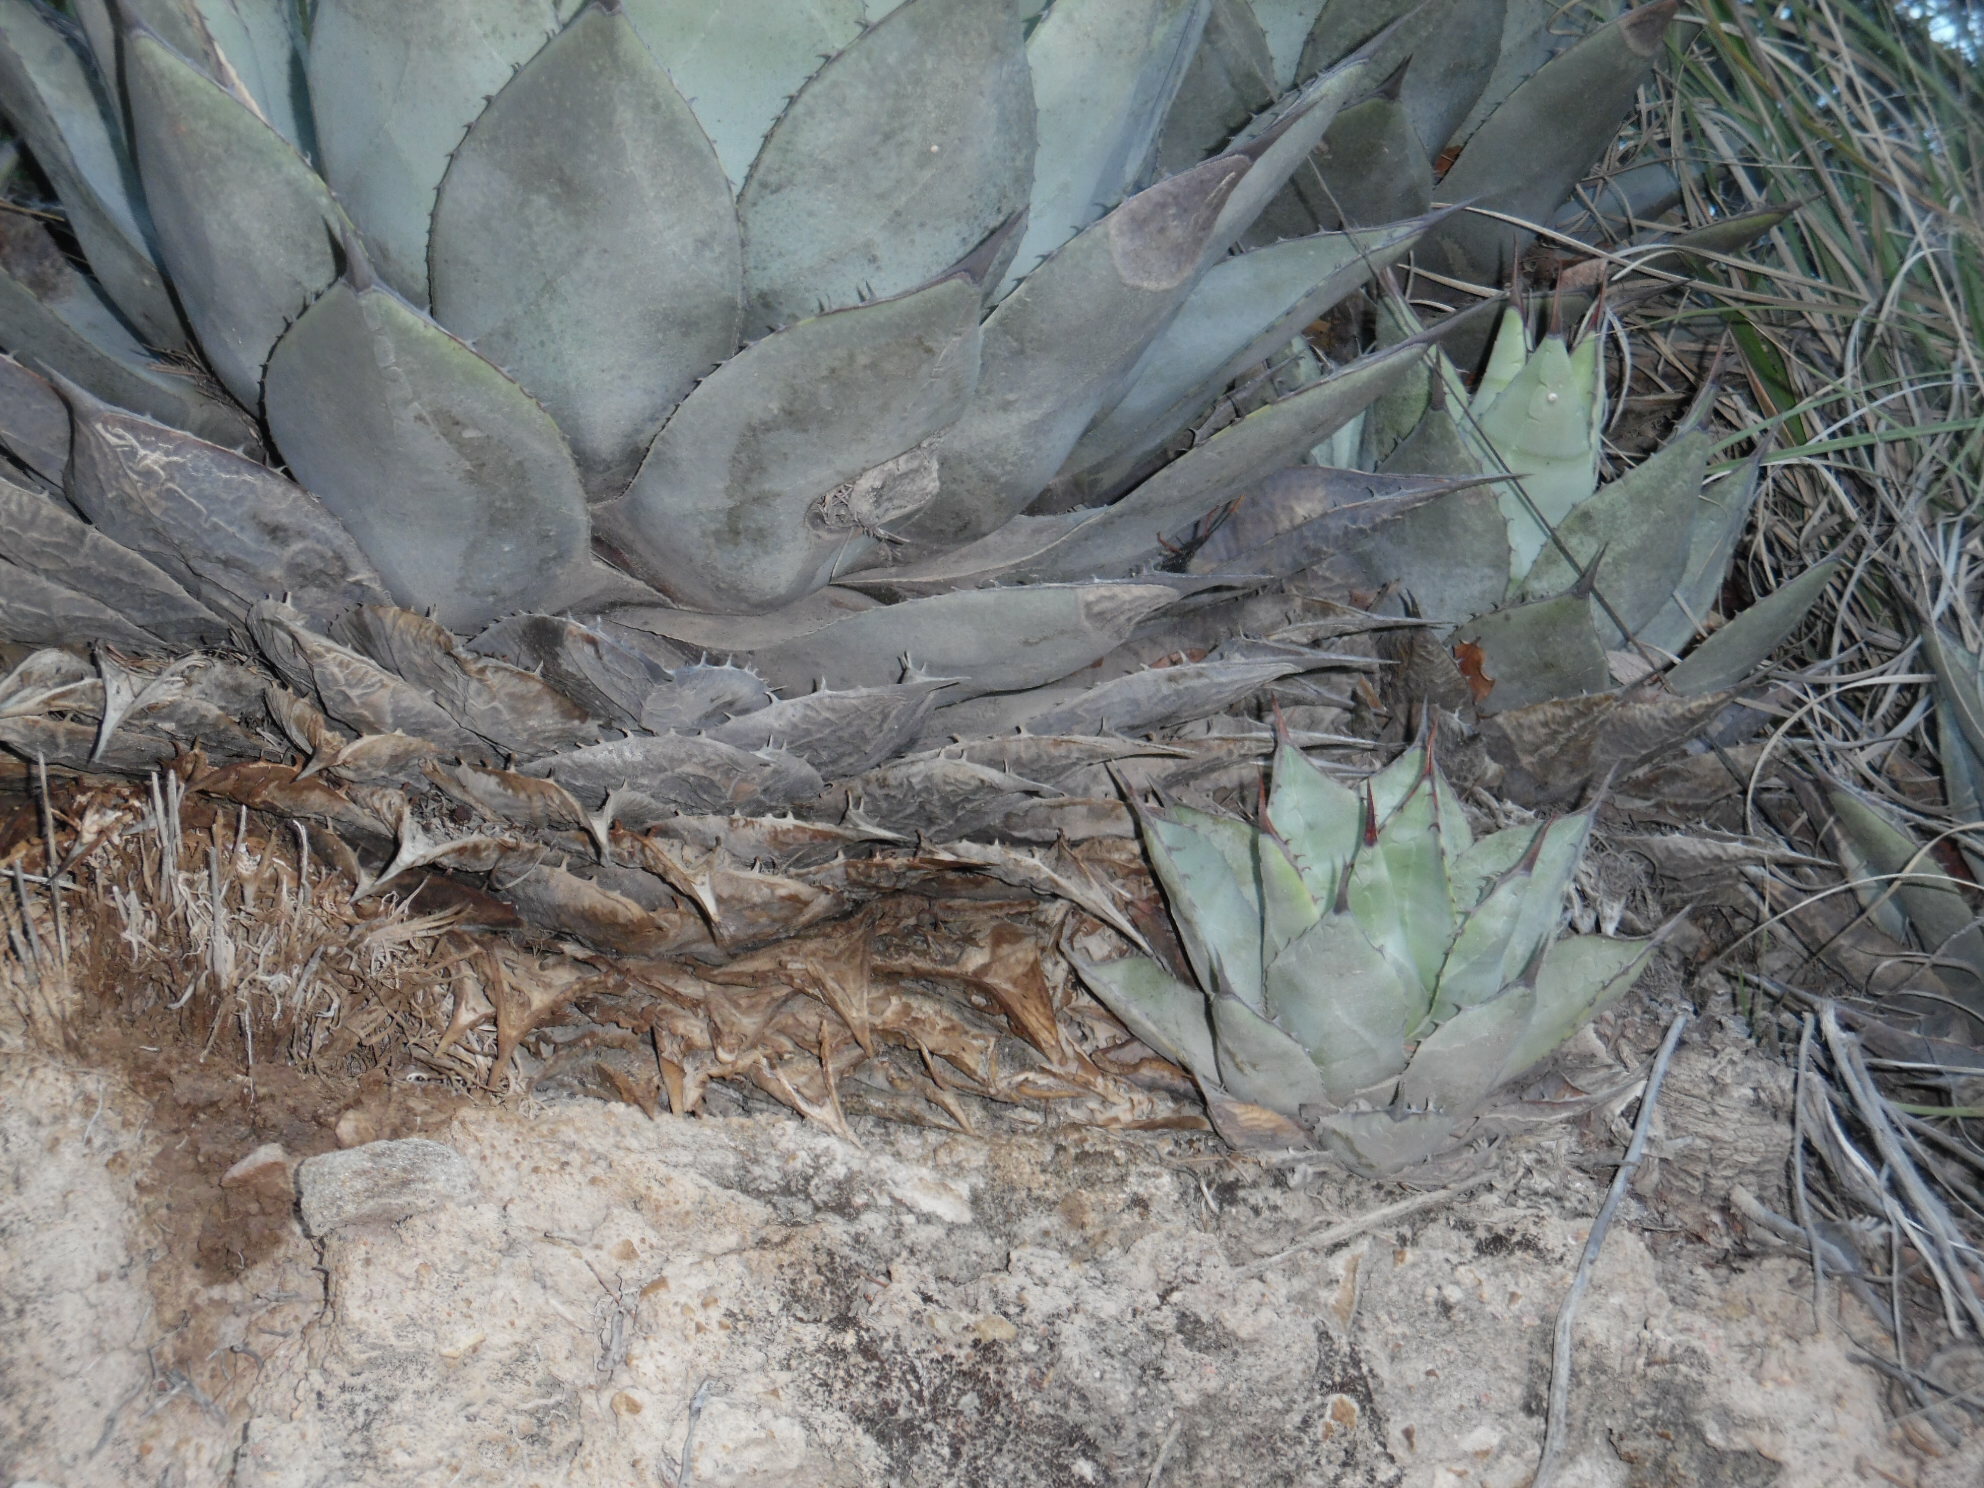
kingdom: Plantae
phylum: Tracheophyta
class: Liliopsida
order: Asparagales
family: Asparagaceae
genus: Agave
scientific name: Agave parryi
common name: Parry's agave
